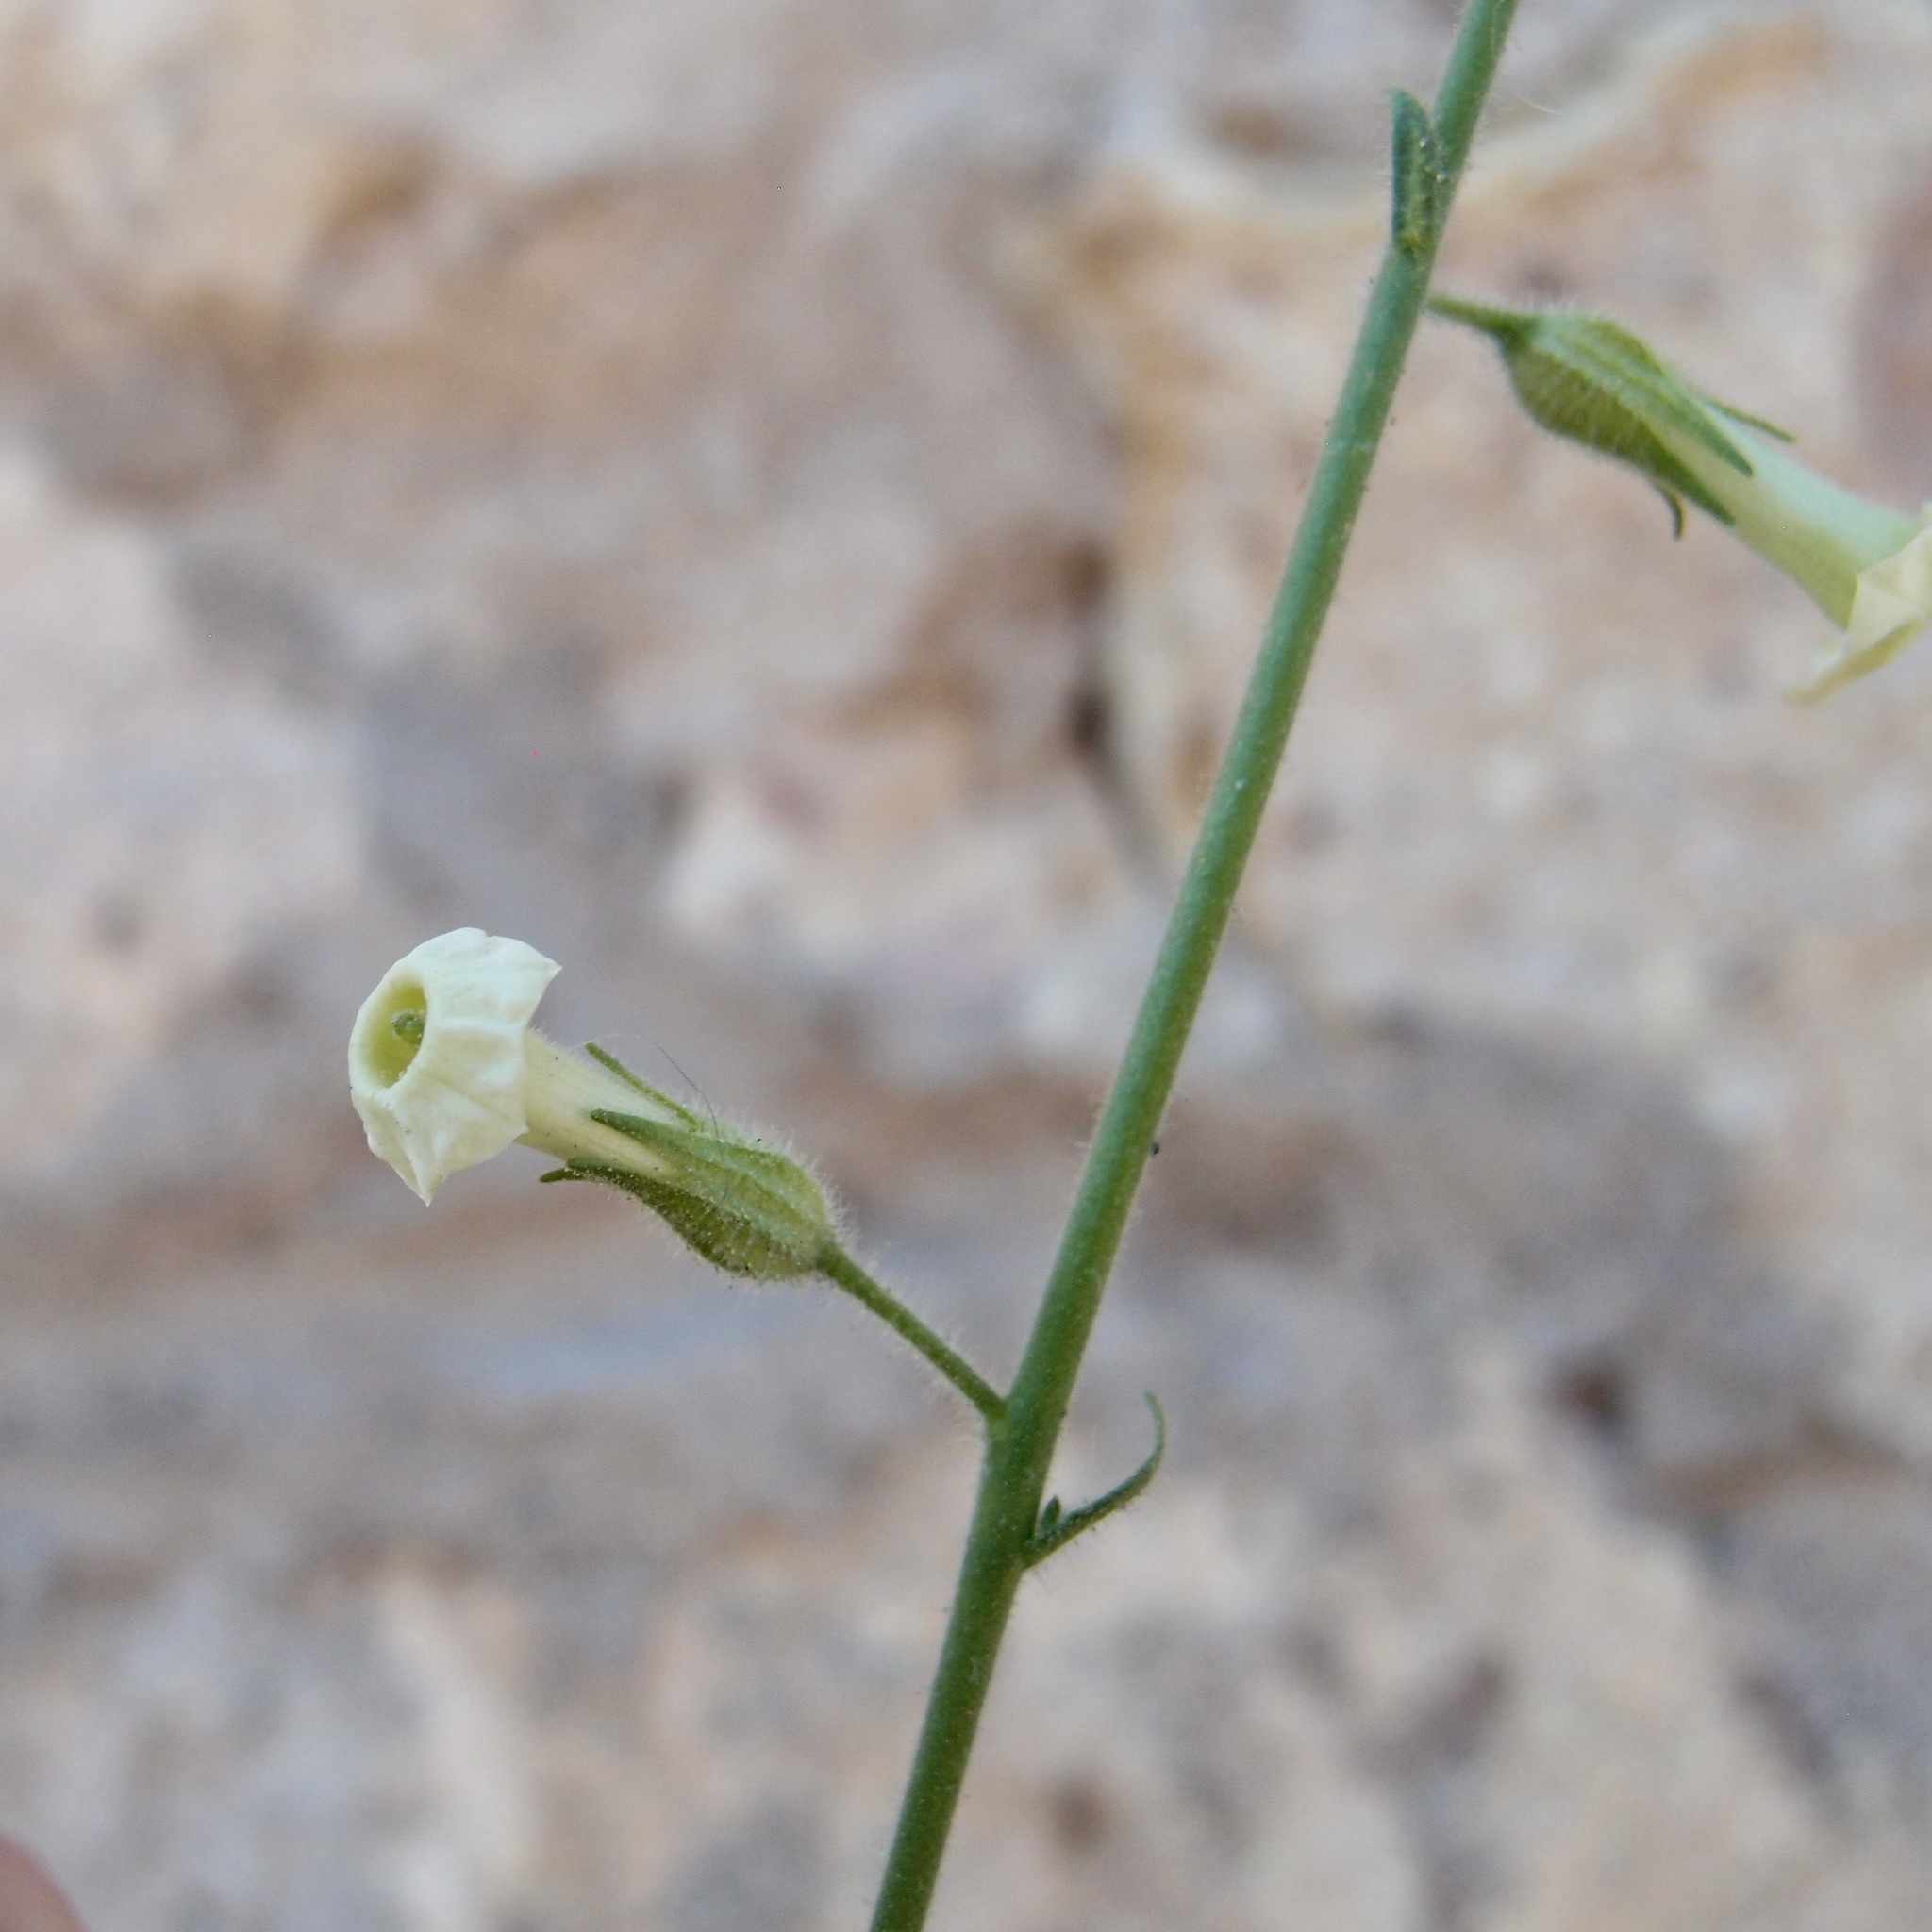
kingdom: Plantae
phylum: Tracheophyta
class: Magnoliopsida
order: Solanales
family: Solanaceae
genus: Nicotiana
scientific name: Nicotiana obtusifolia
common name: Desert tobacco
